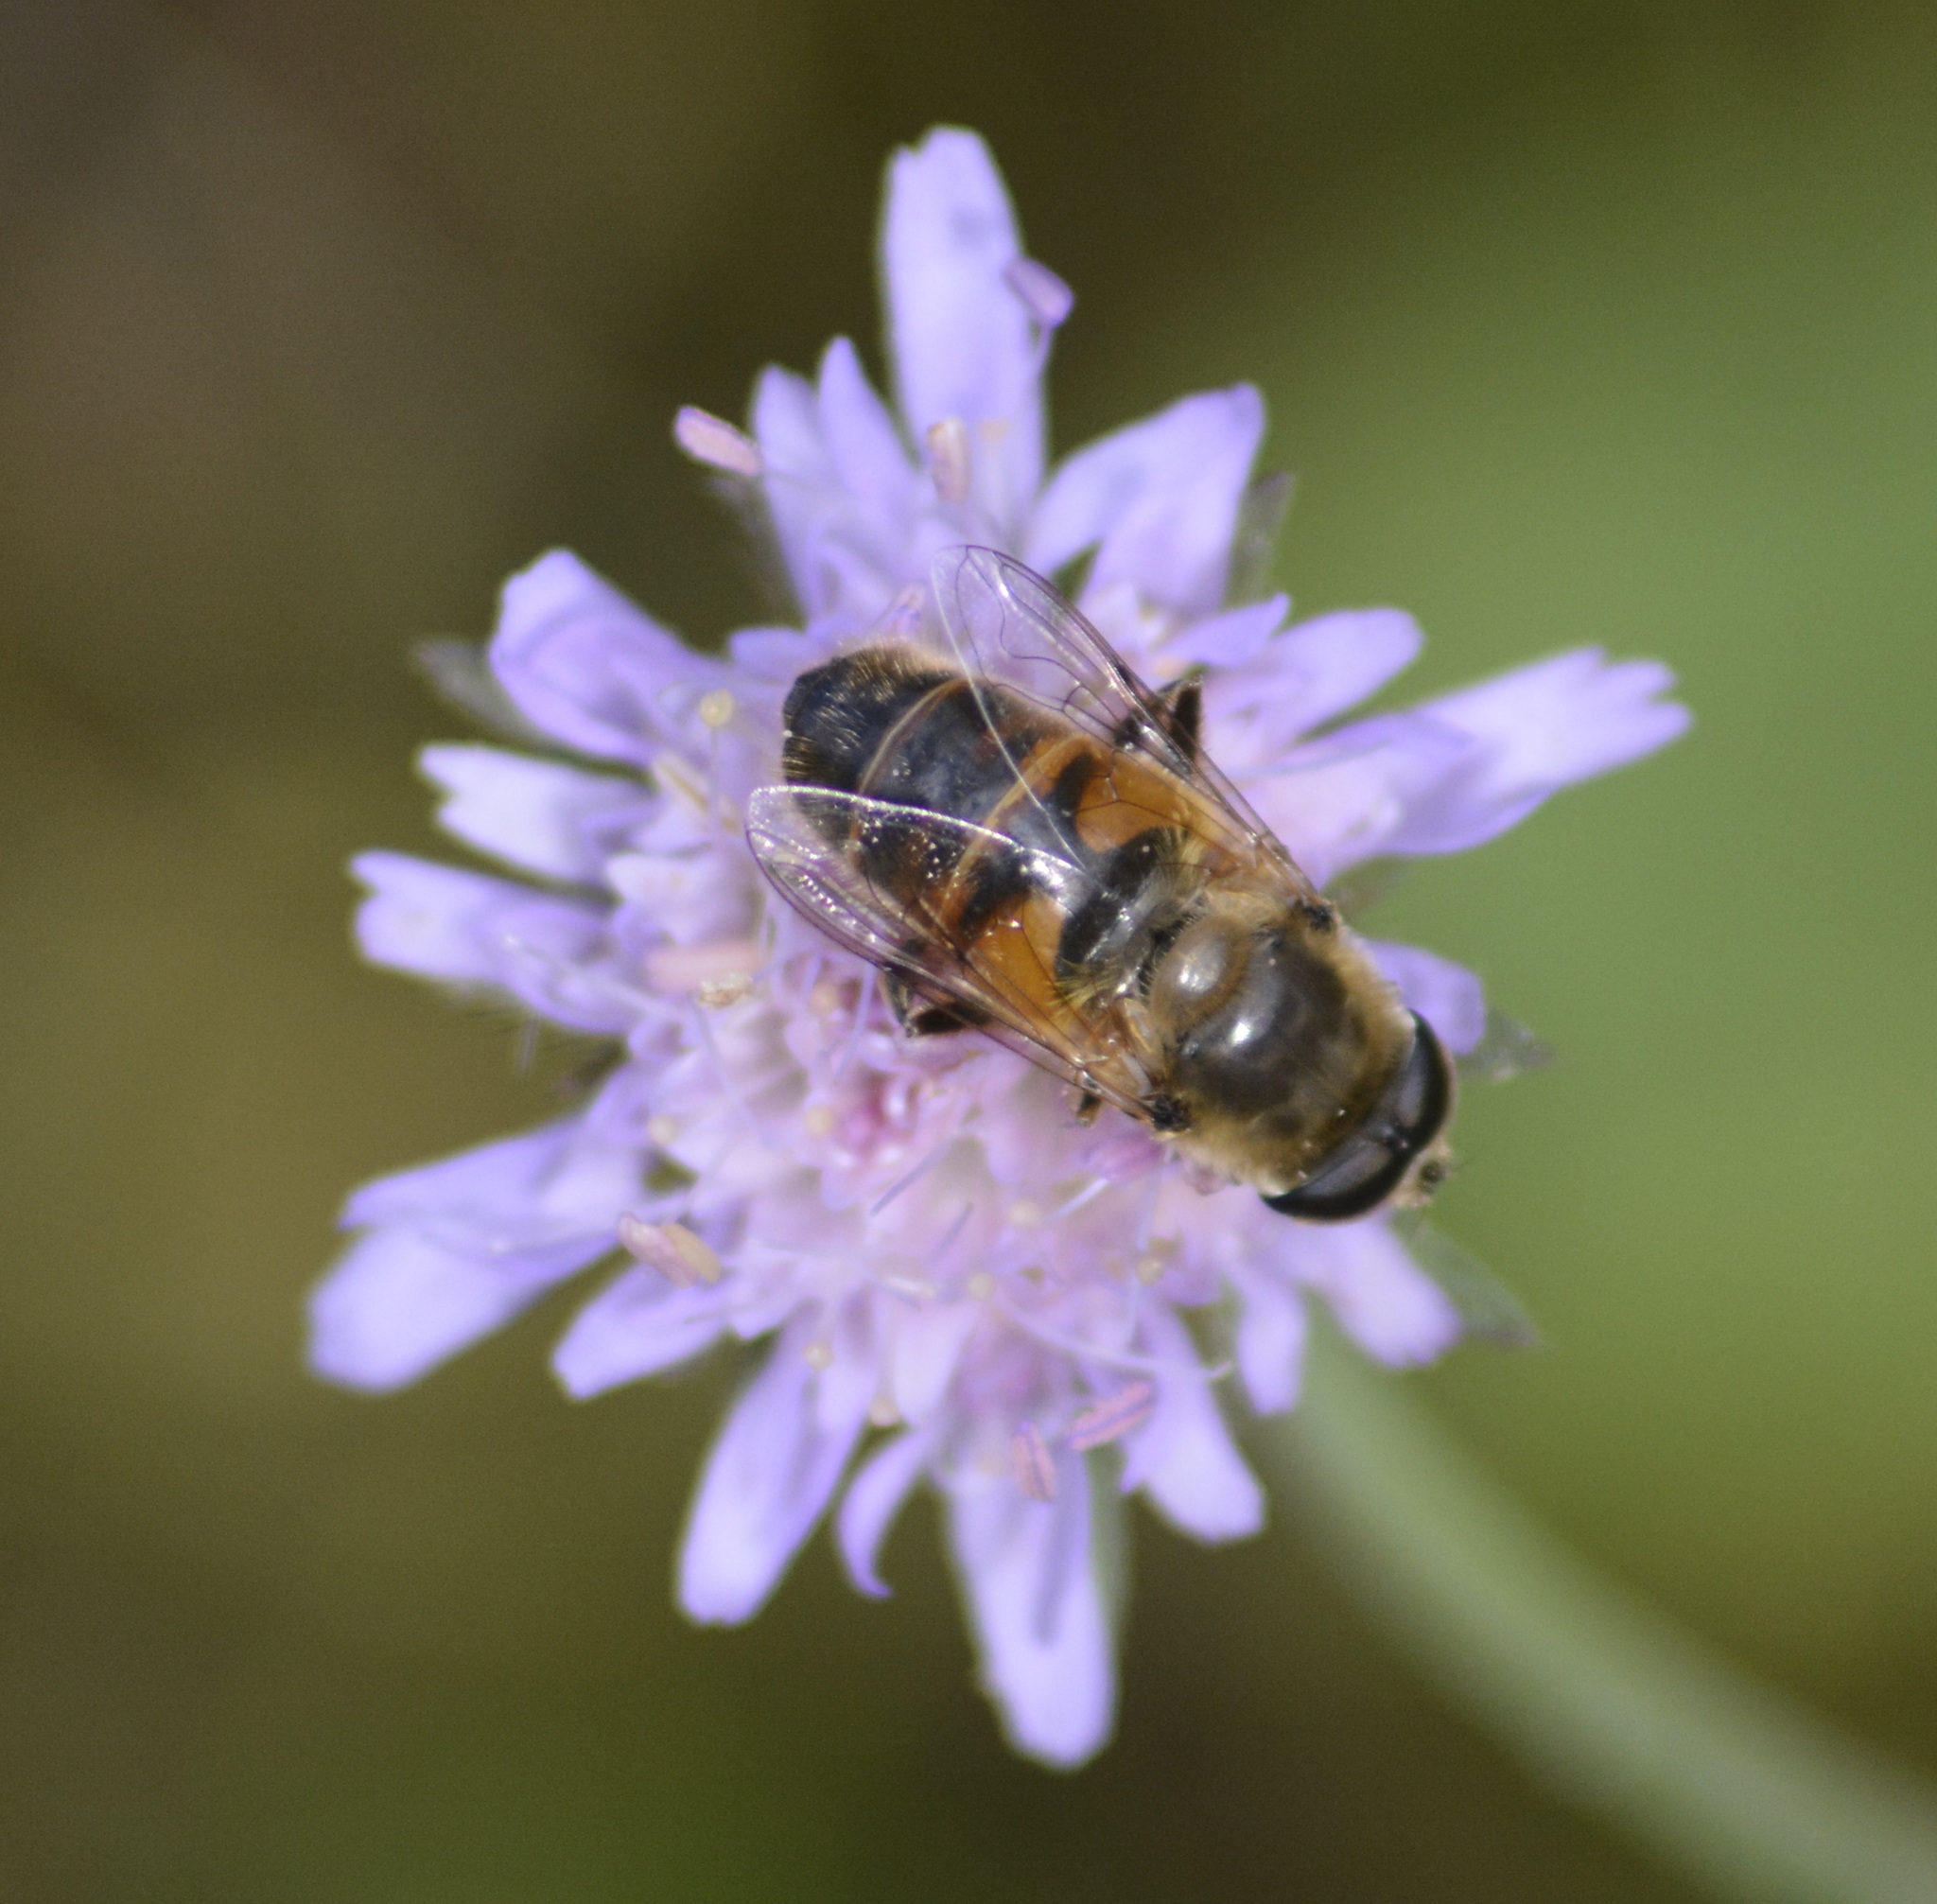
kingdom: Animalia
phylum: Arthropoda
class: Insecta
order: Diptera
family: Syrphidae
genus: Eristalis
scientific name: Eristalis tenax
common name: Drone fly
